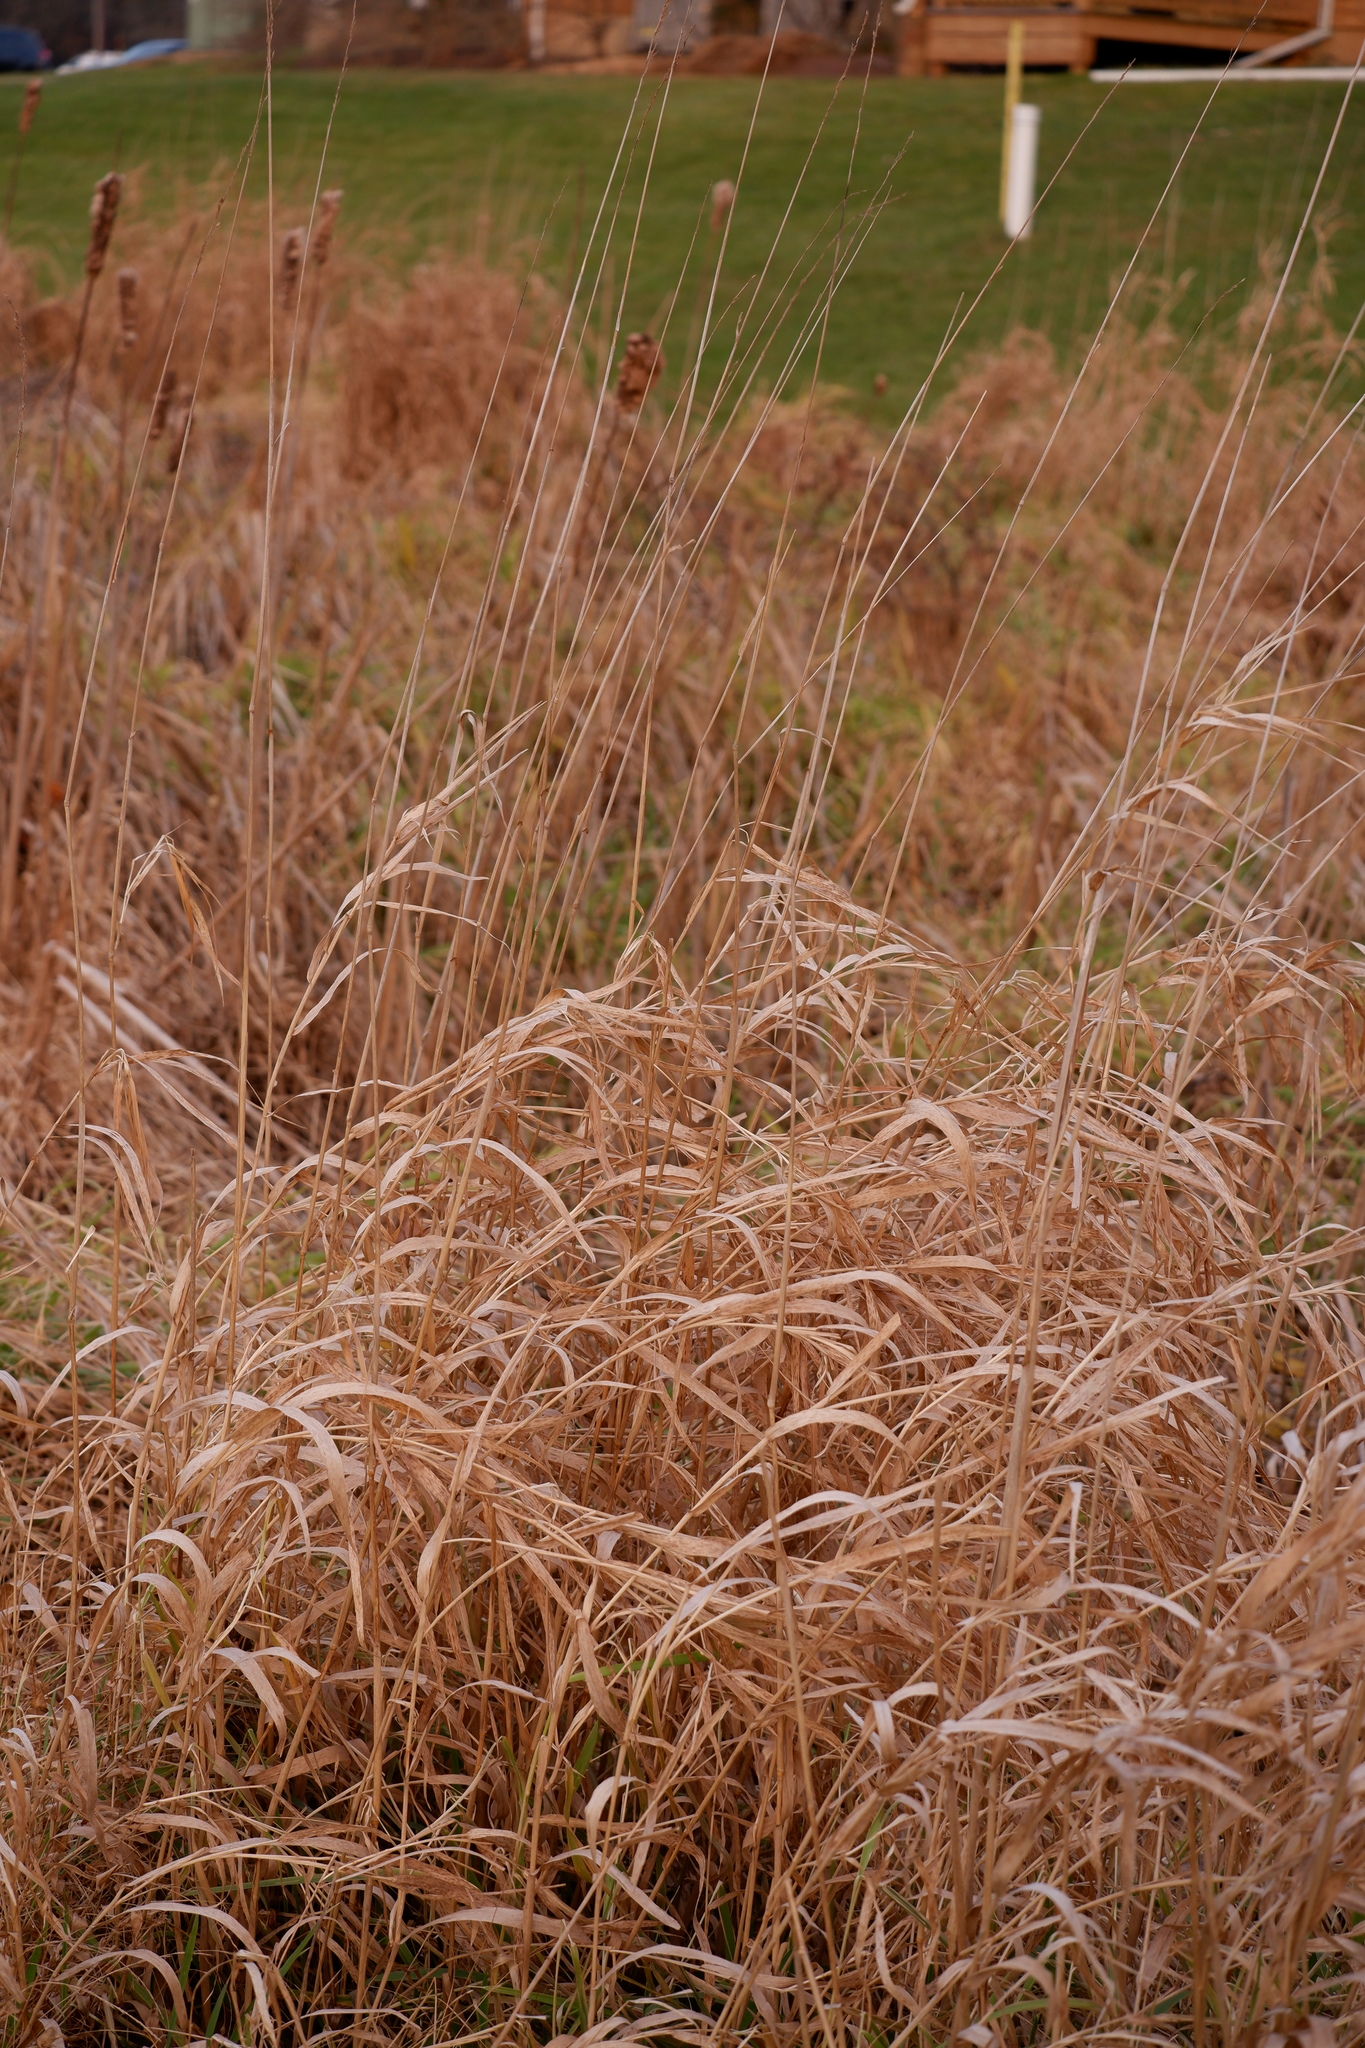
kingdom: Plantae
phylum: Tracheophyta
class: Liliopsida
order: Poales
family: Poaceae
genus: Phalaris
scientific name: Phalaris arundinacea
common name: Reed canary-grass
